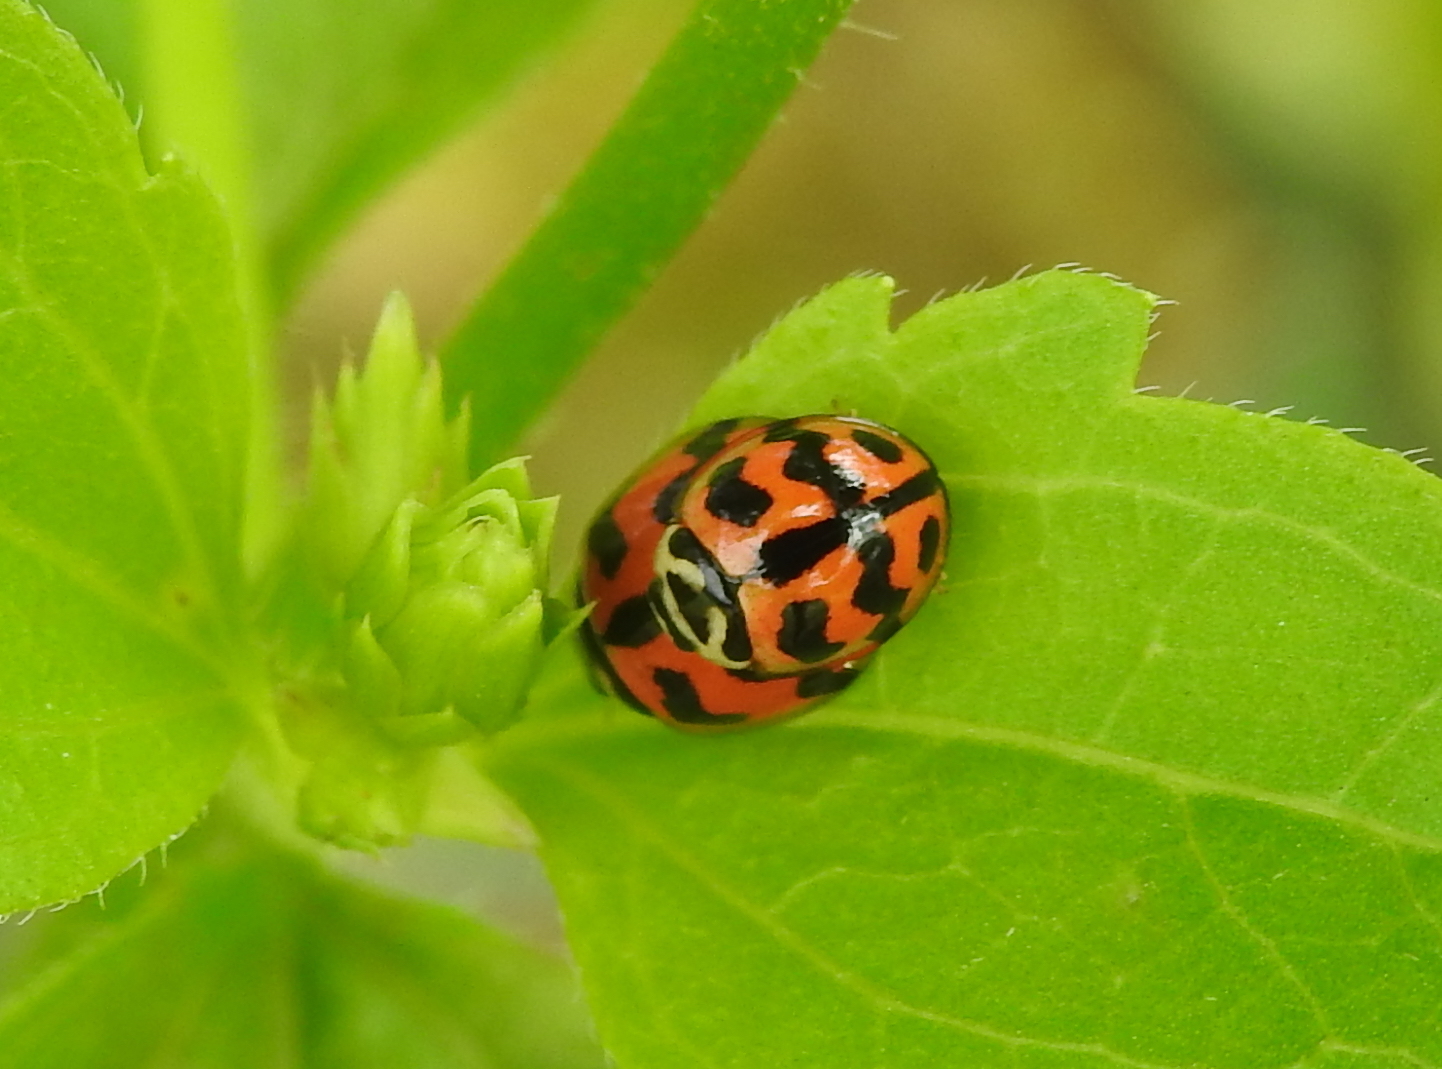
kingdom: Animalia
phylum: Arthropoda
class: Insecta
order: Coleoptera
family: Coccinellidae
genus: Cheilomenes
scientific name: Cheilomenes sexmaculata
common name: Ladybird beetle
